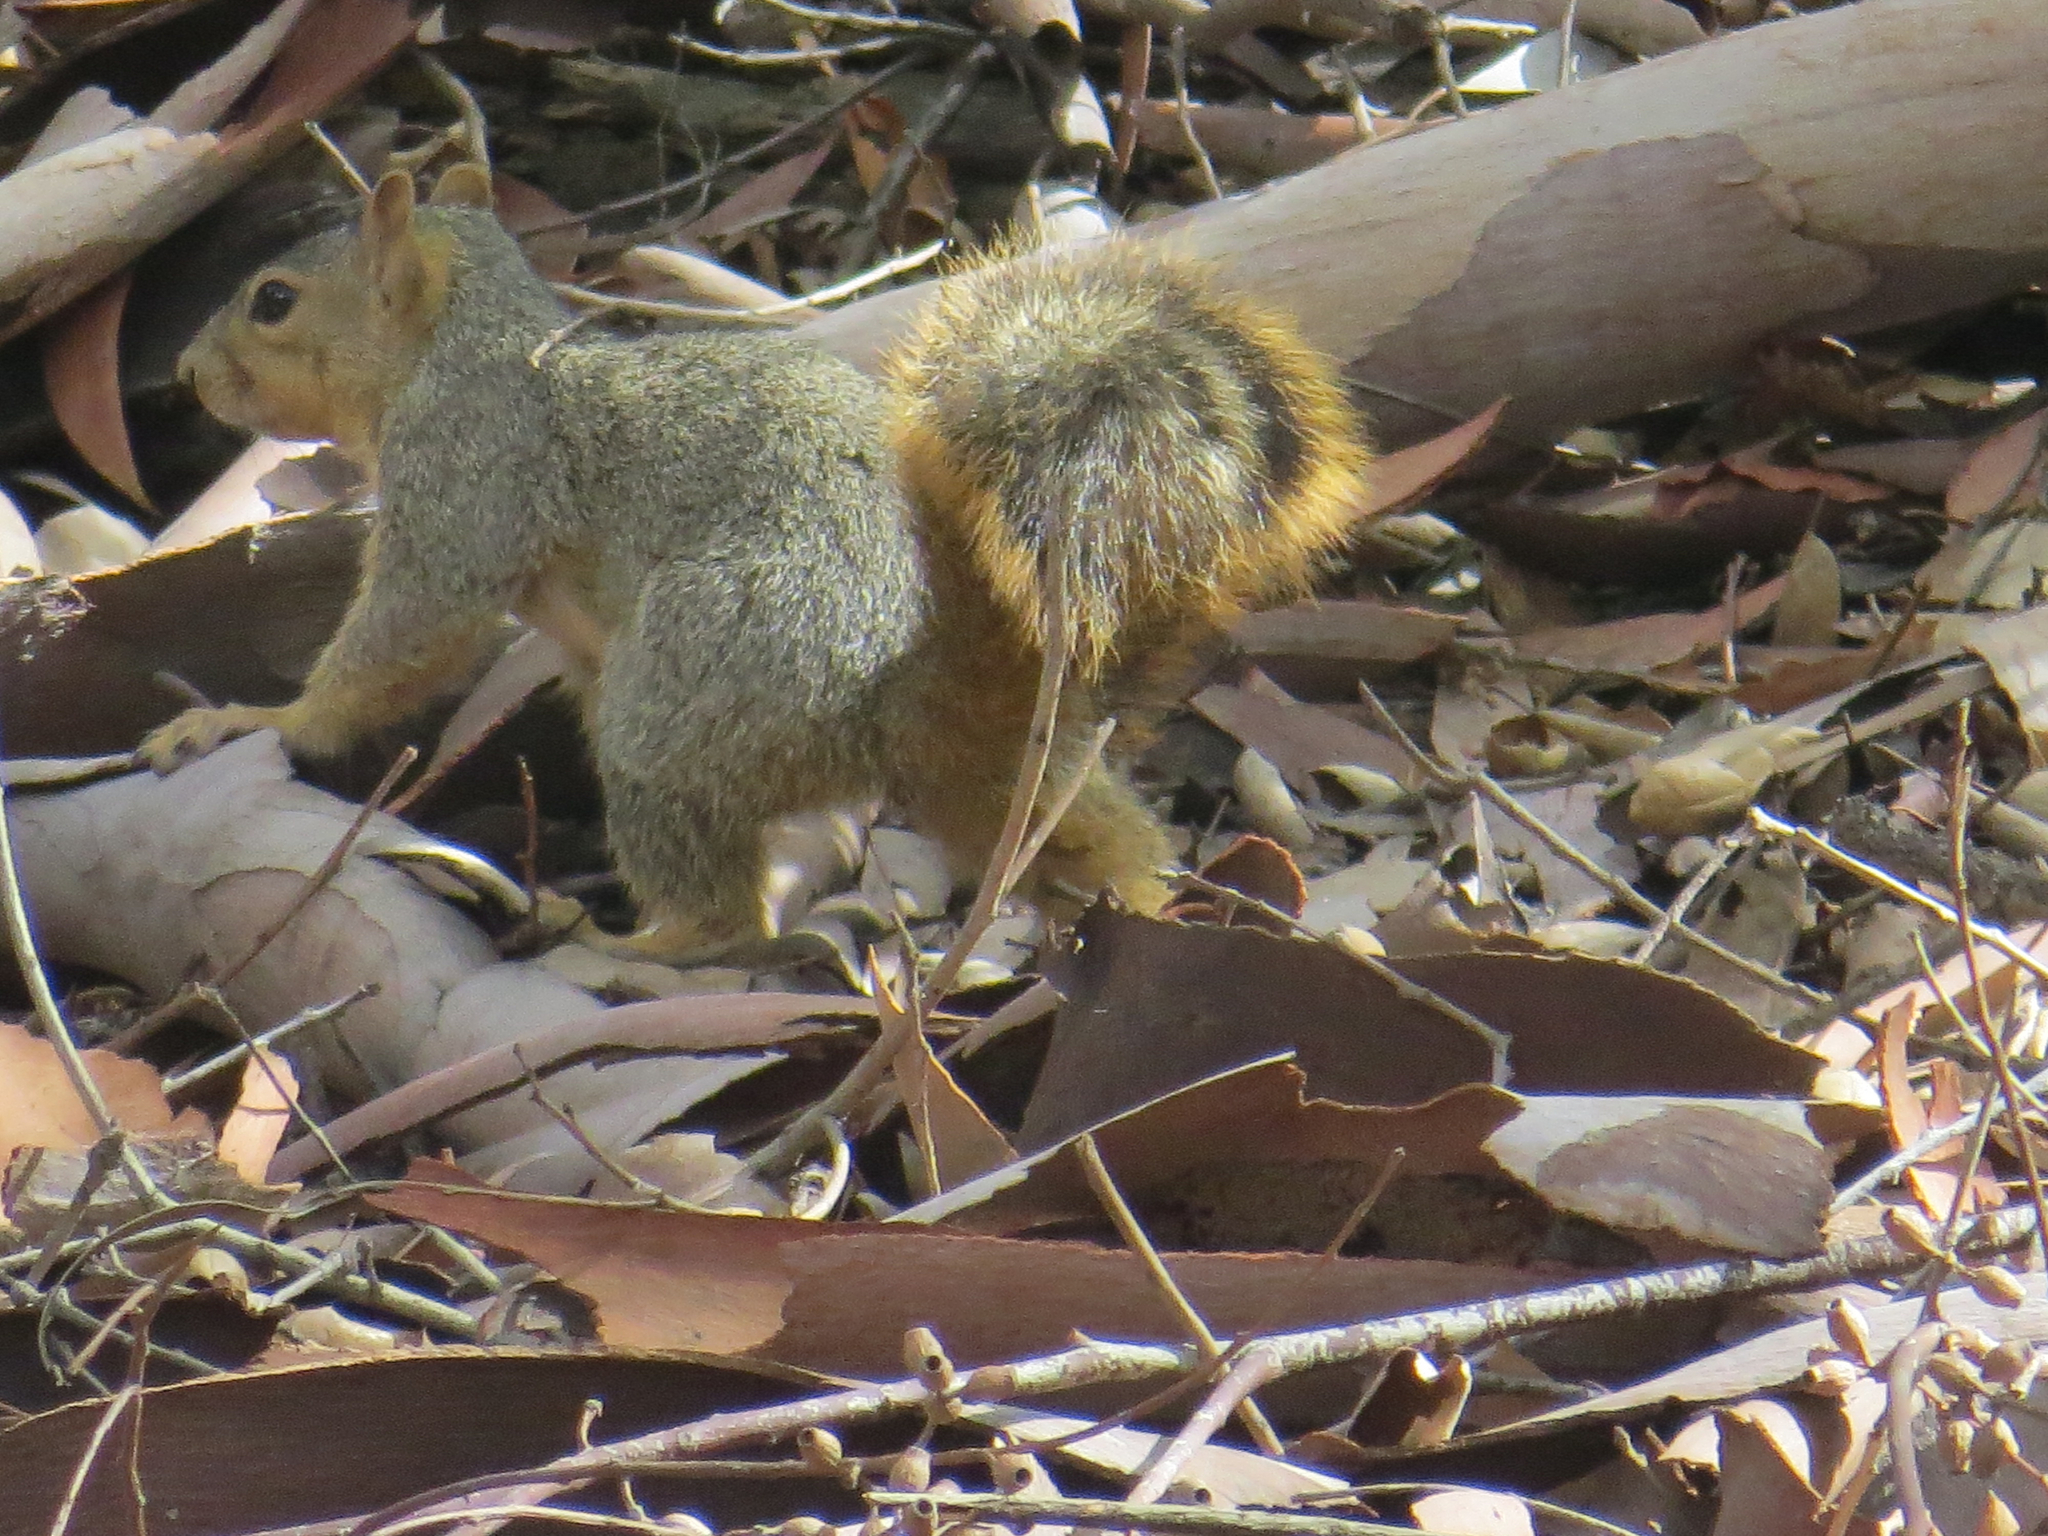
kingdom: Animalia
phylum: Chordata
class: Mammalia
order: Rodentia
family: Sciuridae
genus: Sciurus
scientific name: Sciurus niger
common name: Fox squirrel
